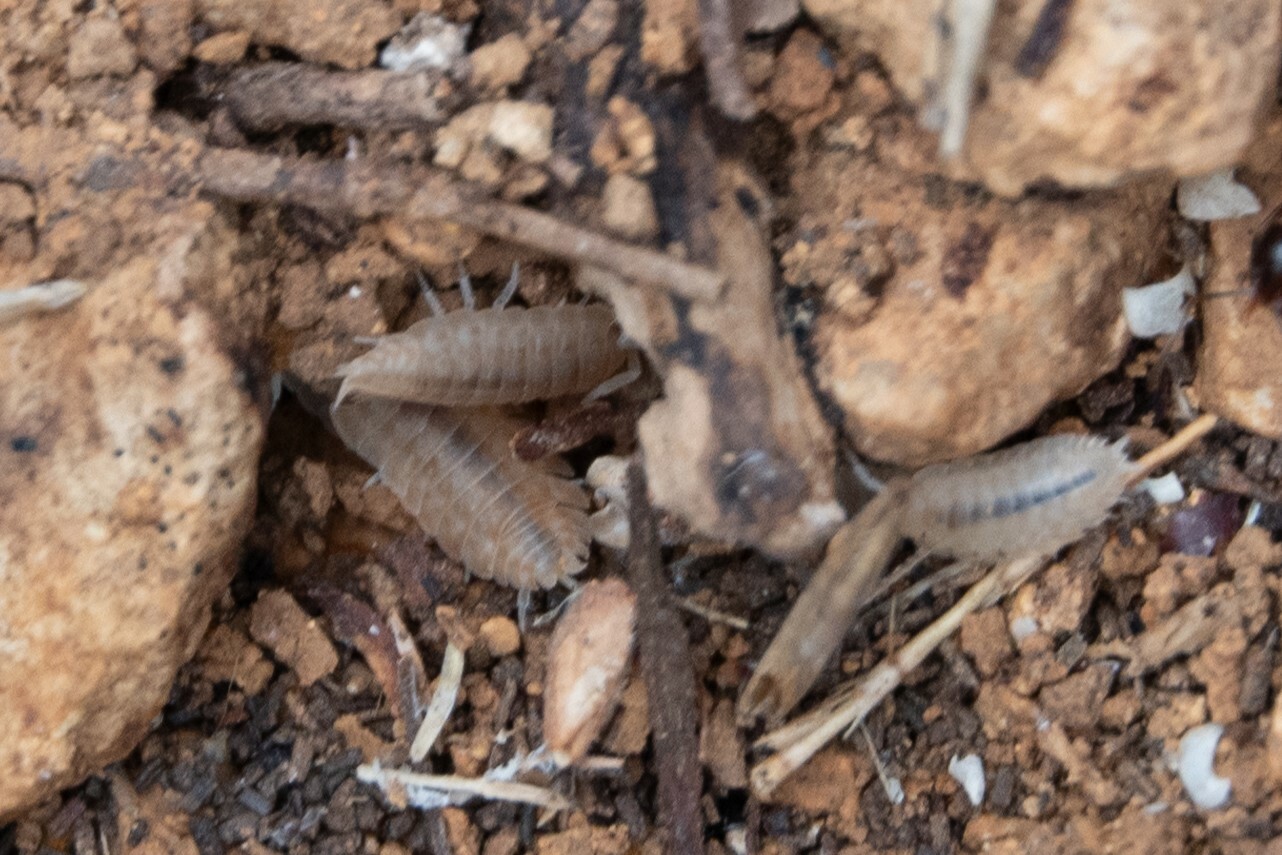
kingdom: Animalia
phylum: Arthropoda
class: Malacostraca
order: Isopoda
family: Porcellionidae
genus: Lucasius
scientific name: Lucasius pallidus
